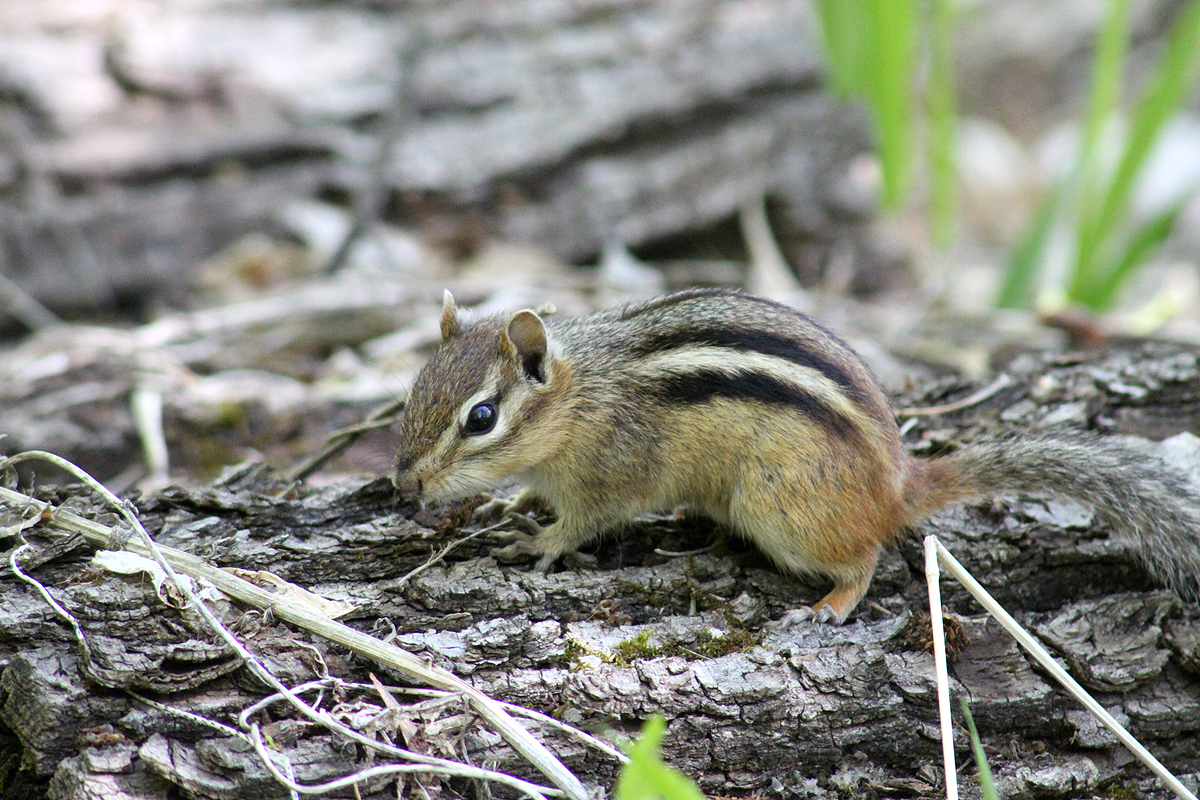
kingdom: Animalia
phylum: Chordata
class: Mammalia
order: Rodentia
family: Sciuridae
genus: Tamias
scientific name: Tamias striatus
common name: Eastern chipmunk
